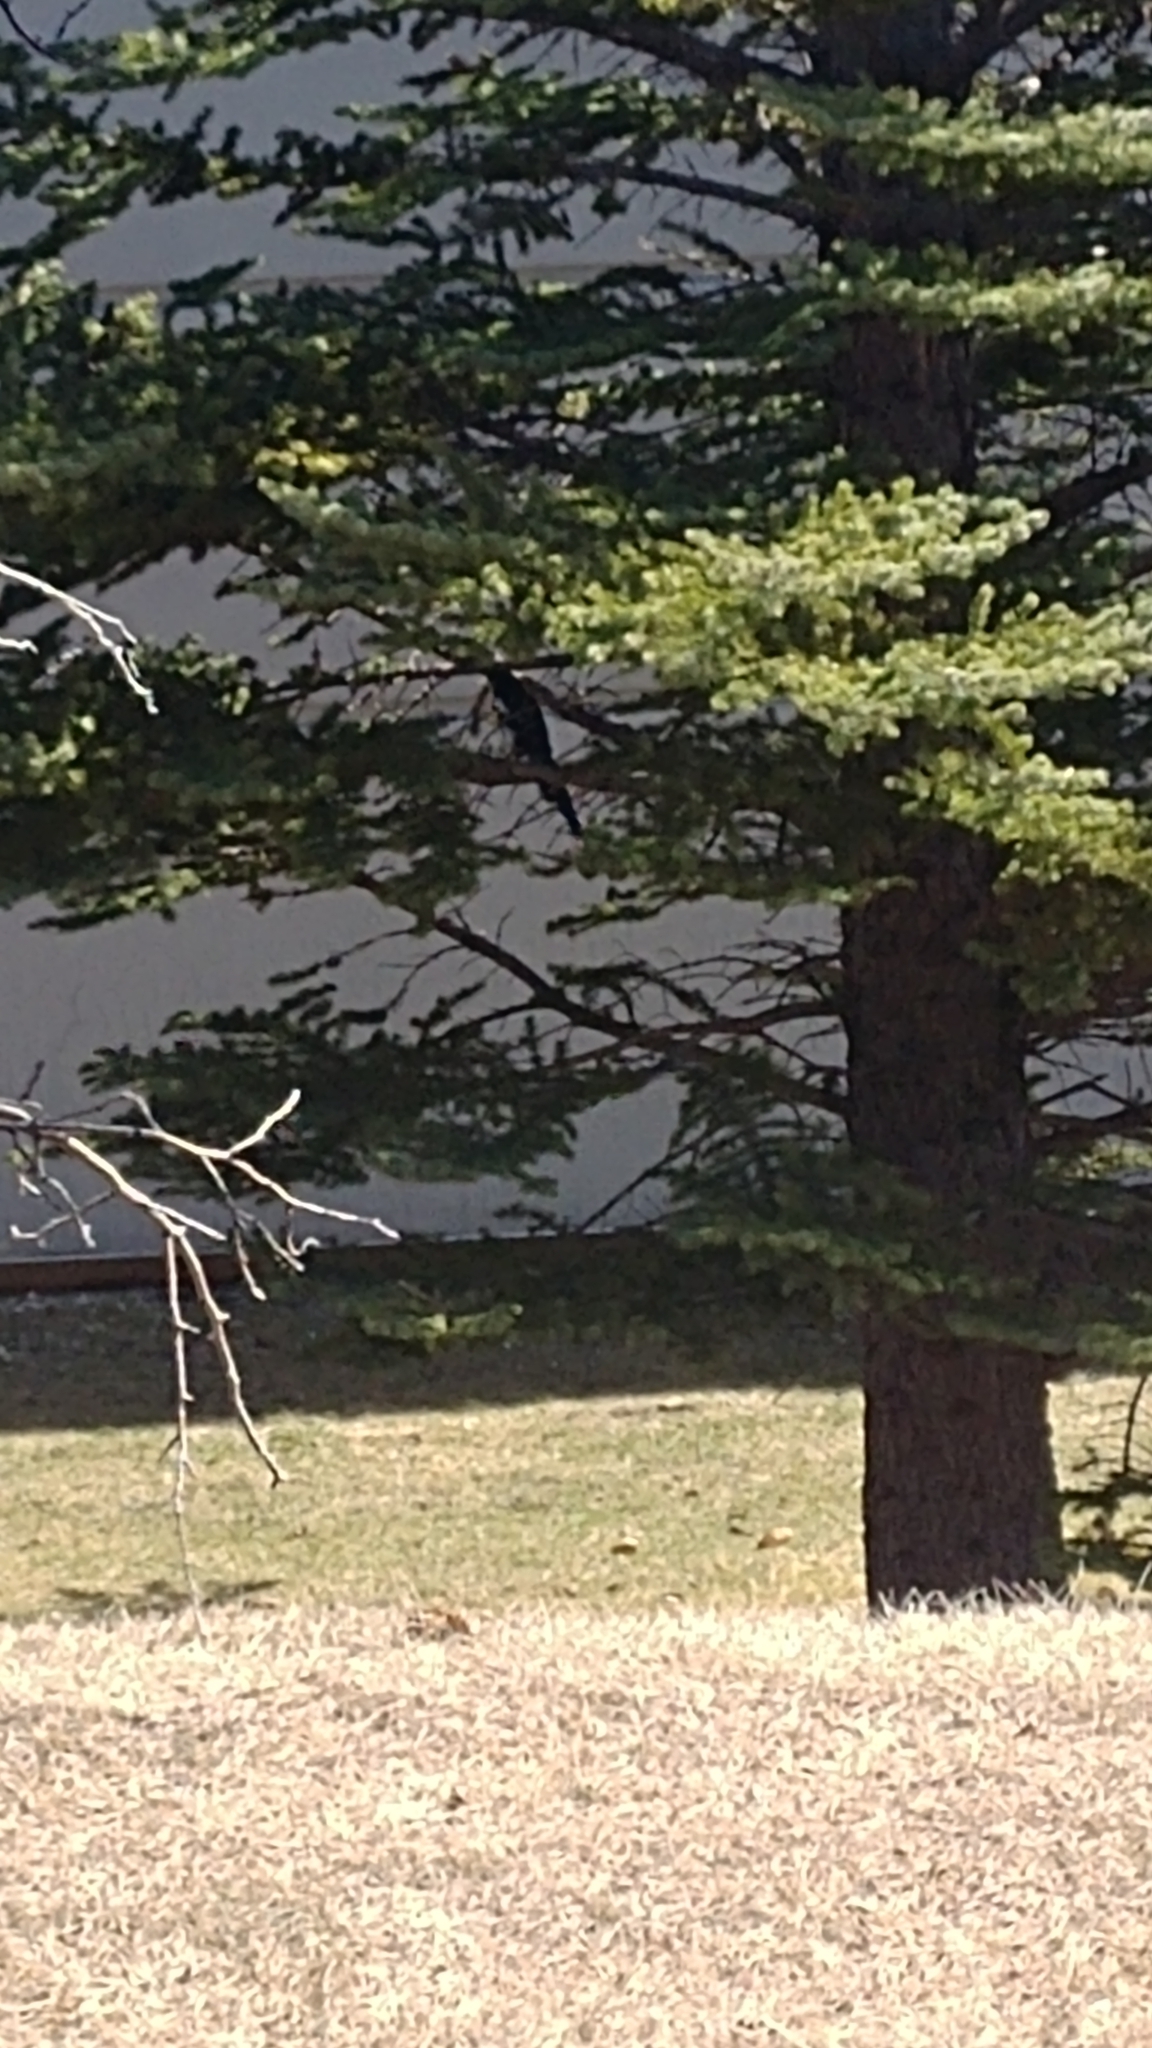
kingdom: Animalia
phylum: Chordata
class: Aves
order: Passeriformes
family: Corvidae
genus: Pica
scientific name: Pica hudsonia
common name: Black-billed magpie
